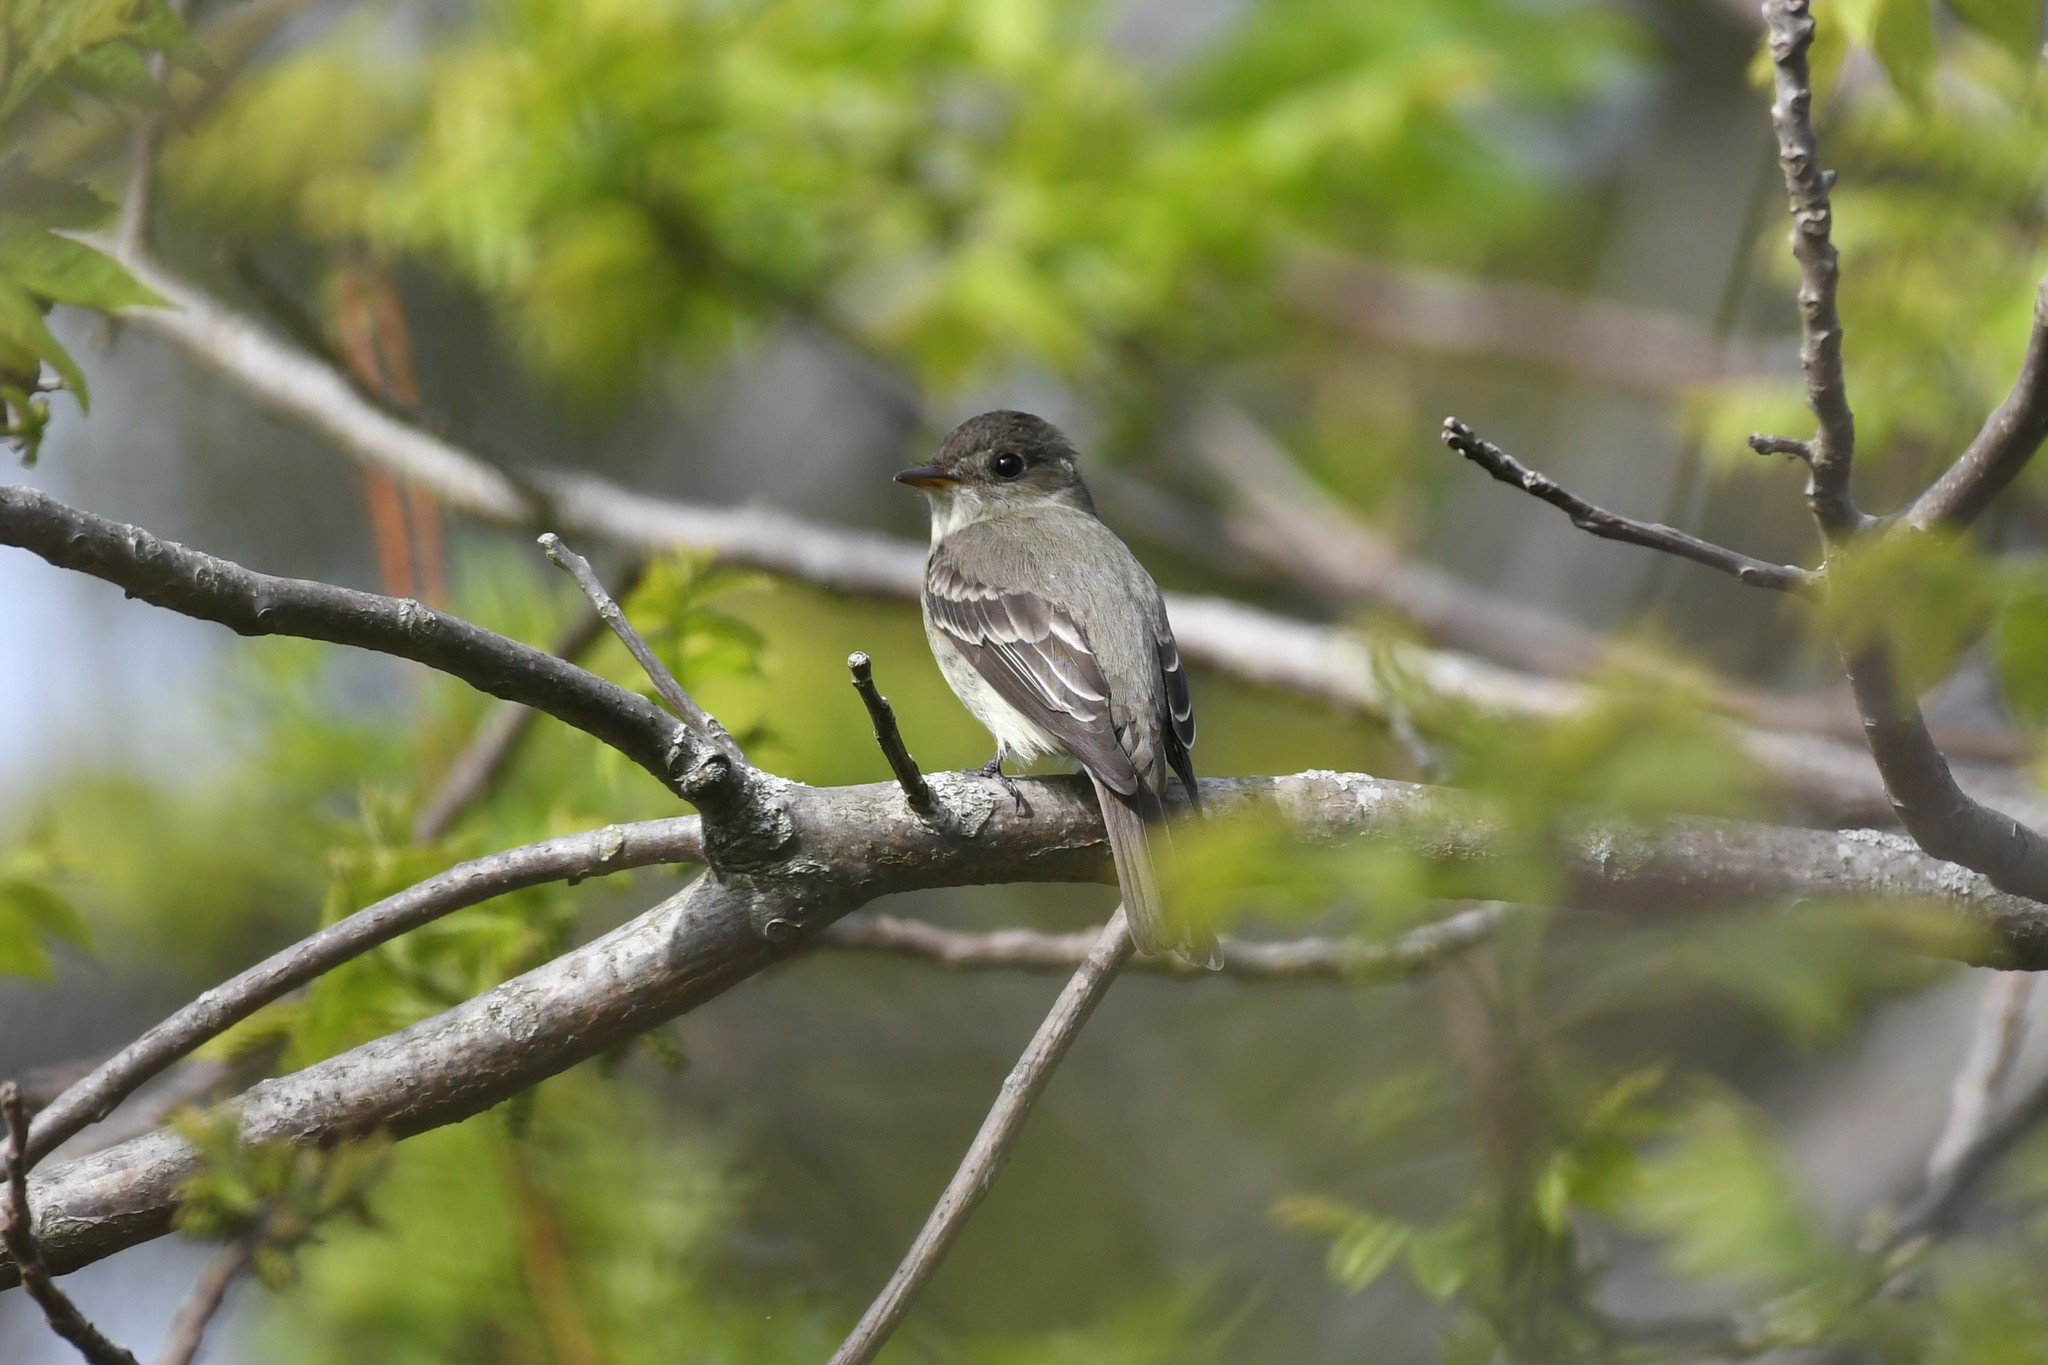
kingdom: Animalia
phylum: Chordata
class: Aves
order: Passeriformes
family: Tyrannidae
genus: Contopus
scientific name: Contopus virens
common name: Eastern wood-pewee
